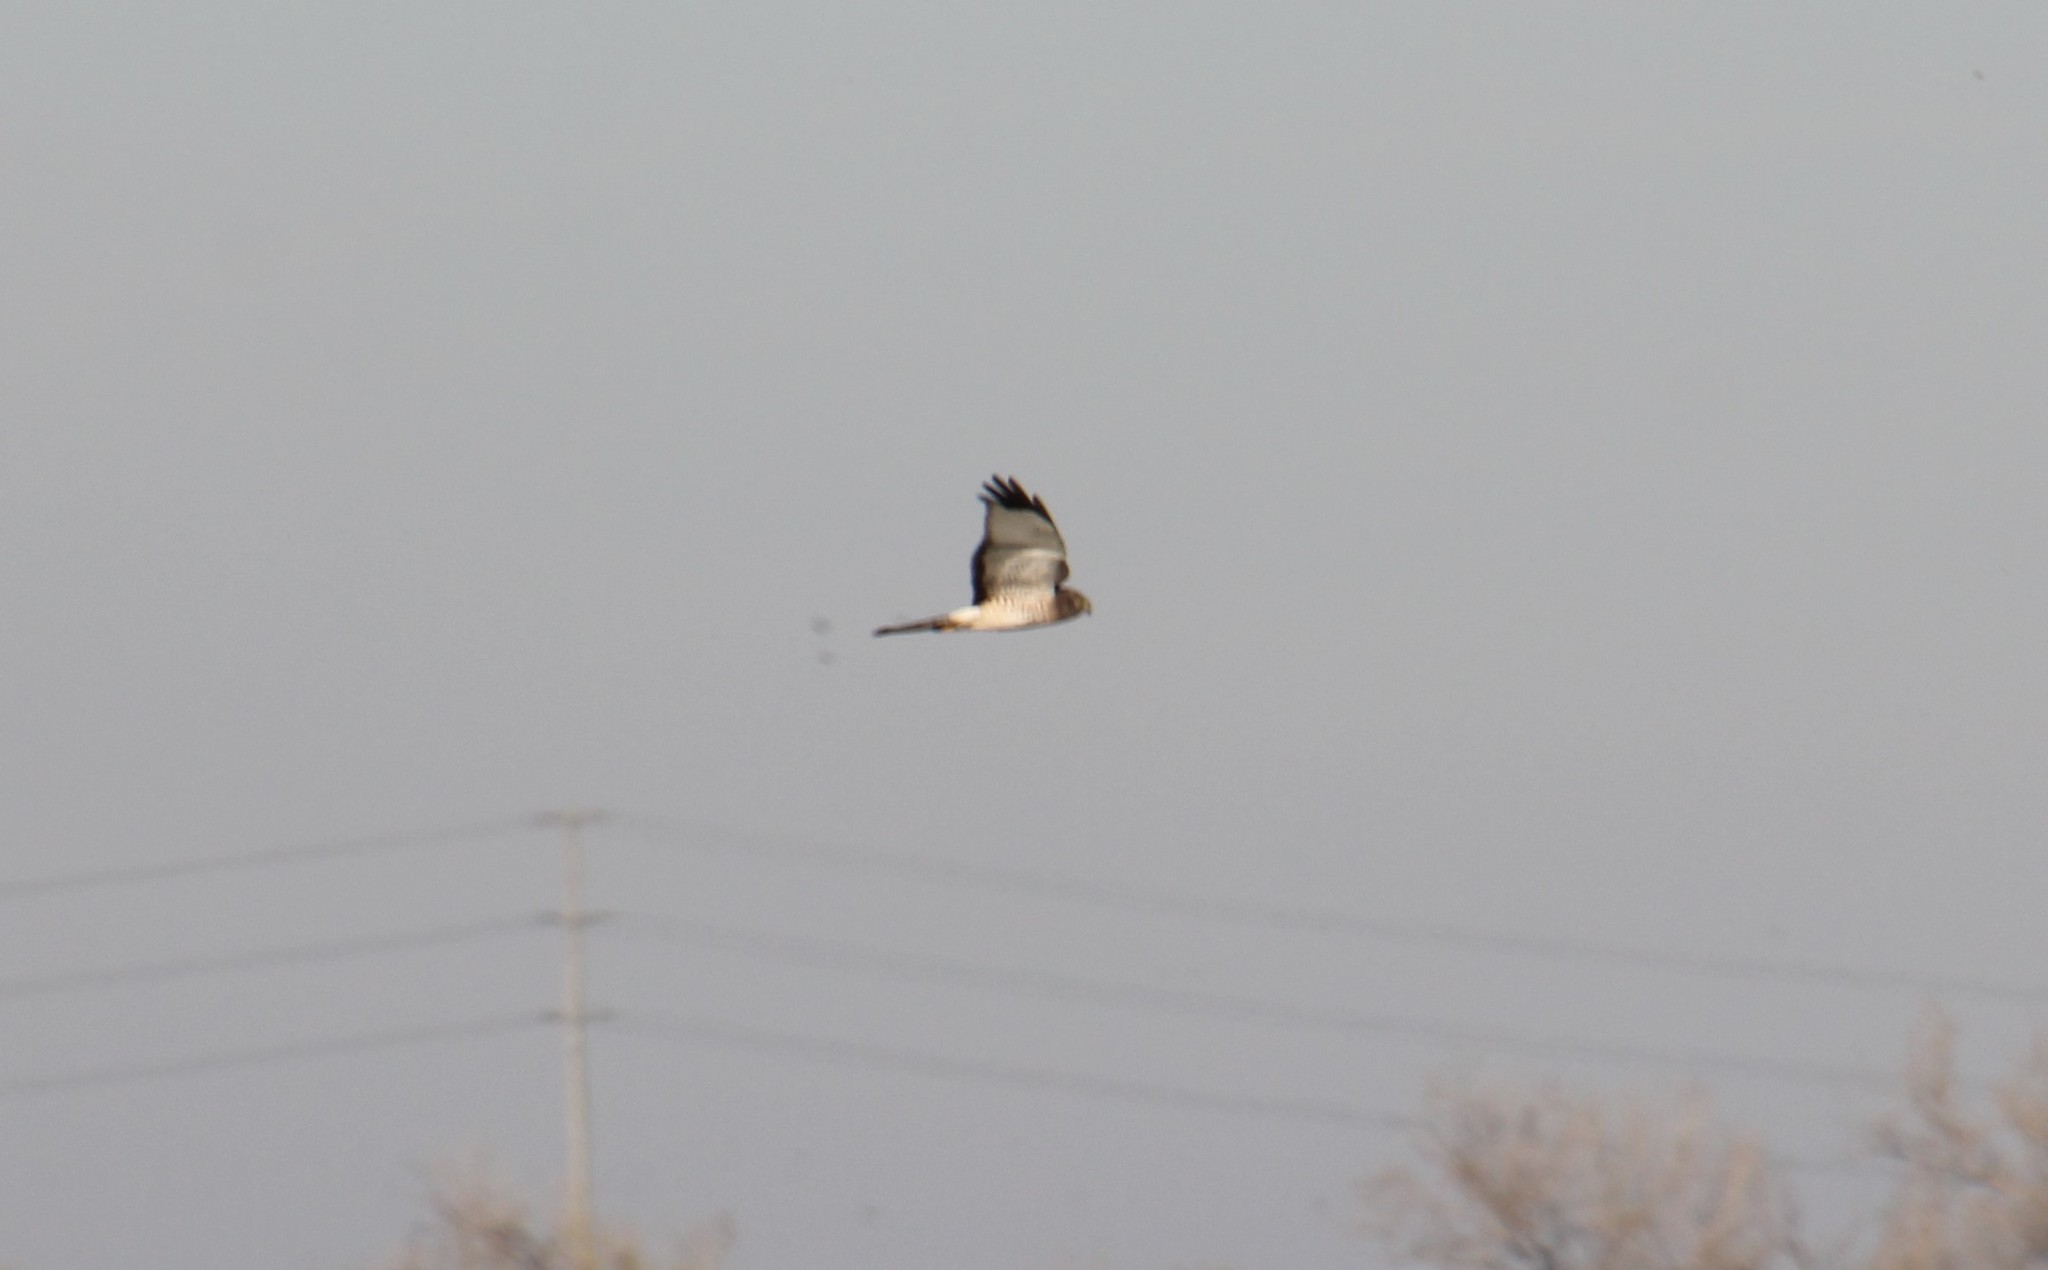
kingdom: Animalia
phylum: Chordata
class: Aves
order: Accipitriformes
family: Accipitridae
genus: Circus
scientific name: Circus cyaneus
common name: Hen harrier
